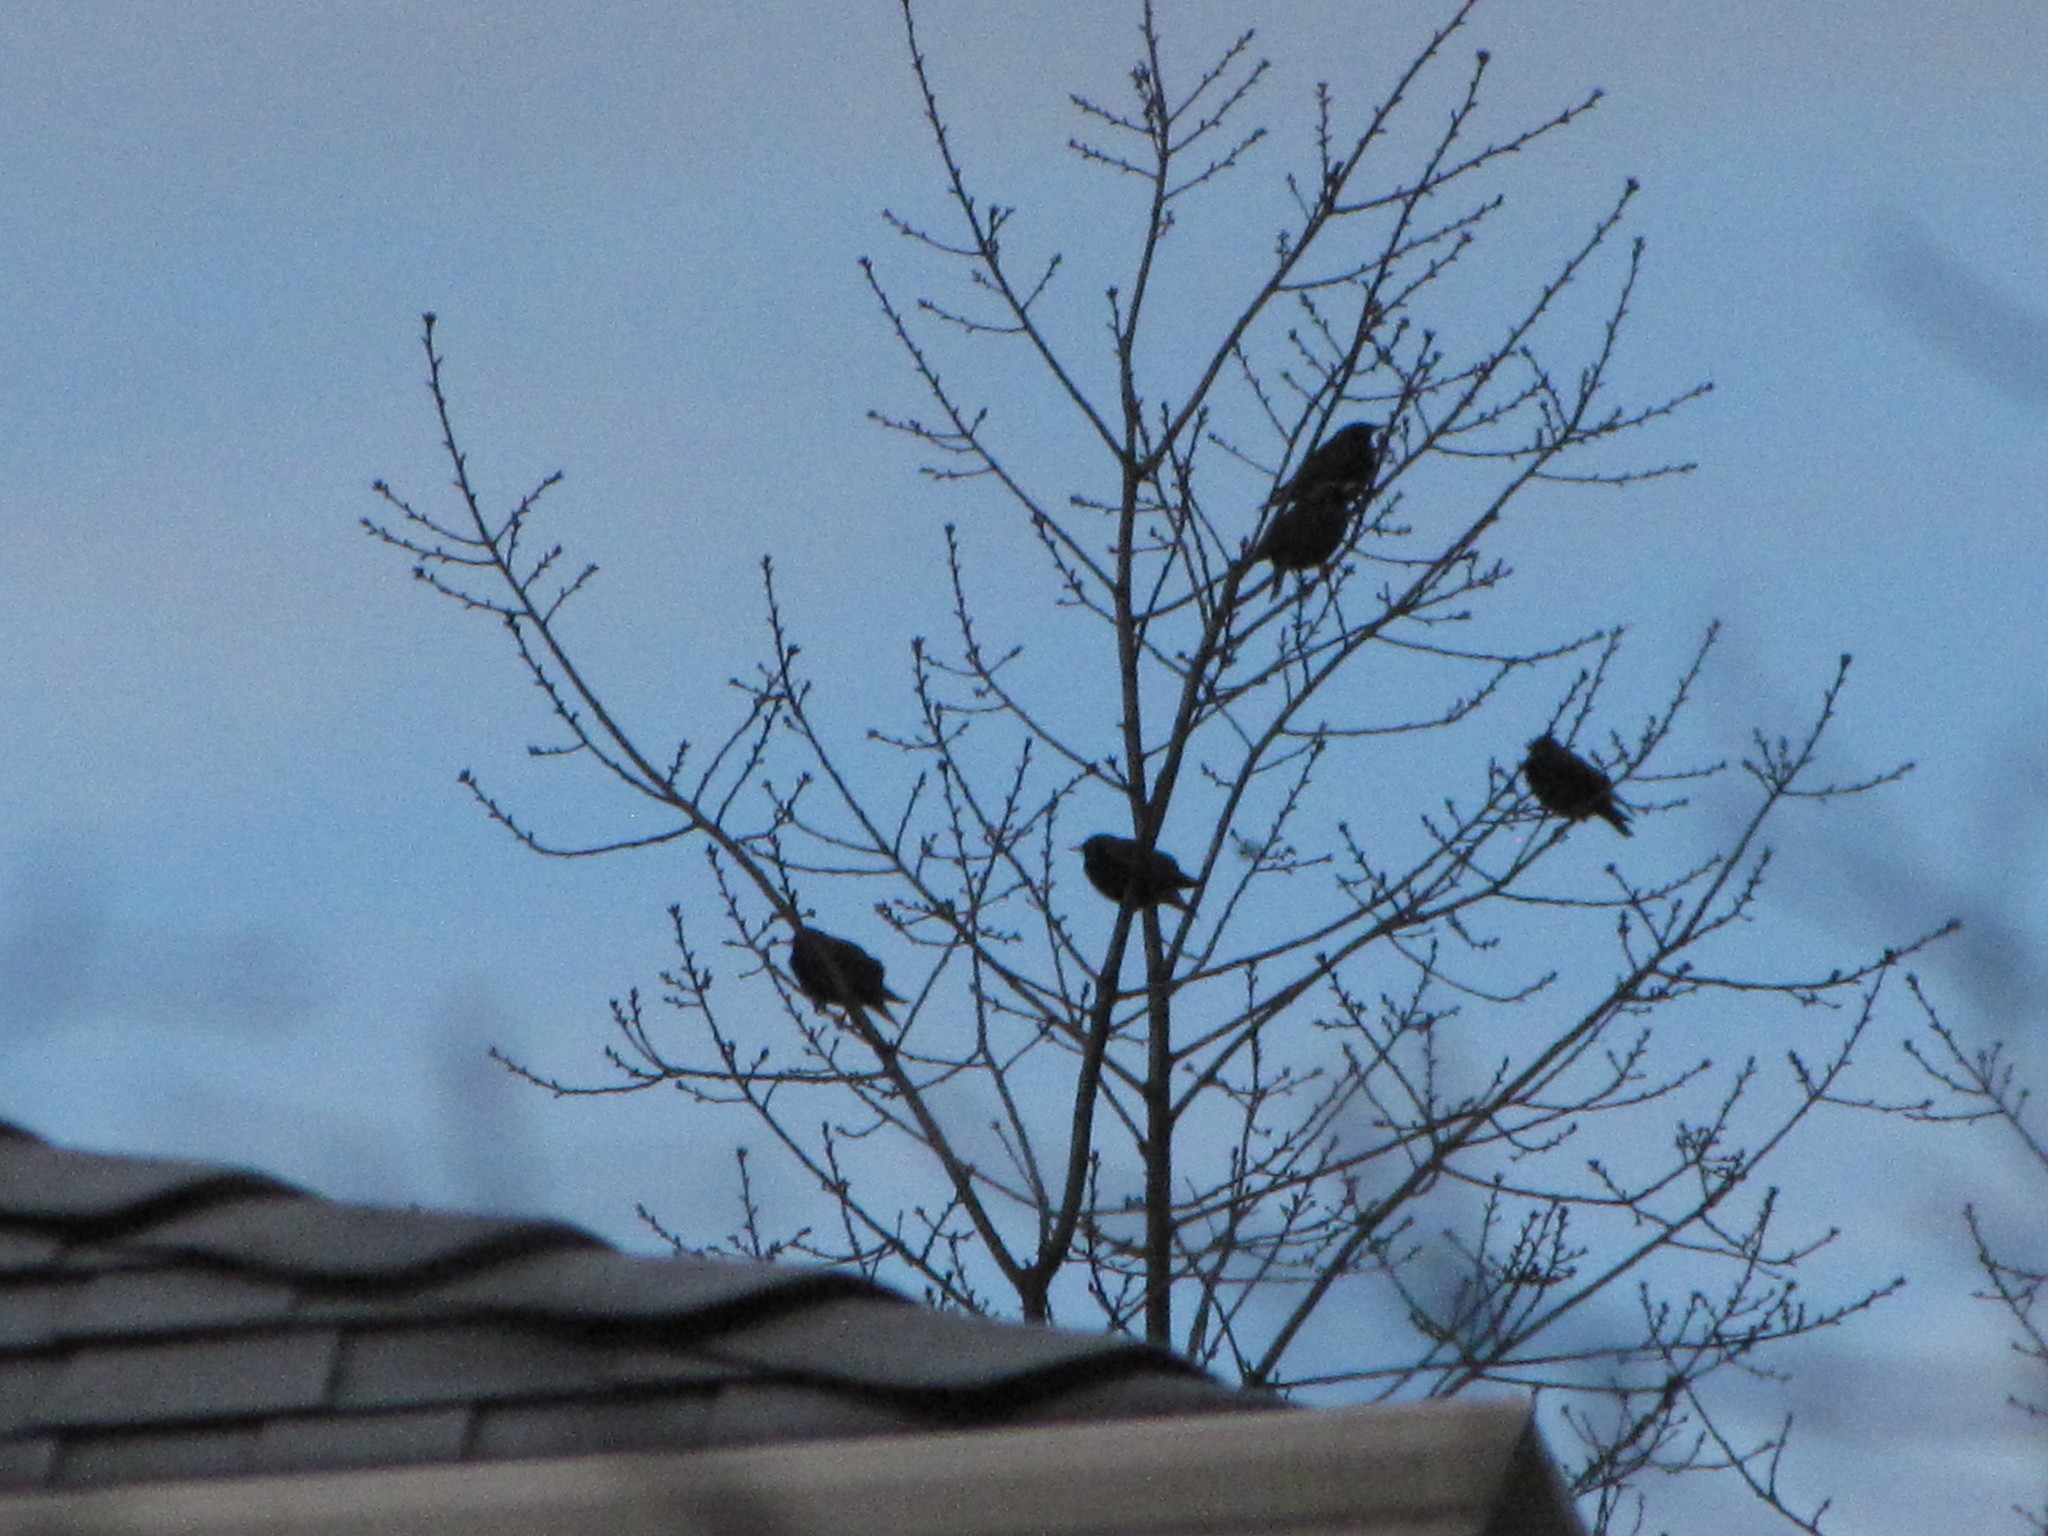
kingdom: Animalia
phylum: Chordata
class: Aves
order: Passeriformes
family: Sturnidae
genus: Sturnus
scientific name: Sturnus vulgaris
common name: Common starling
